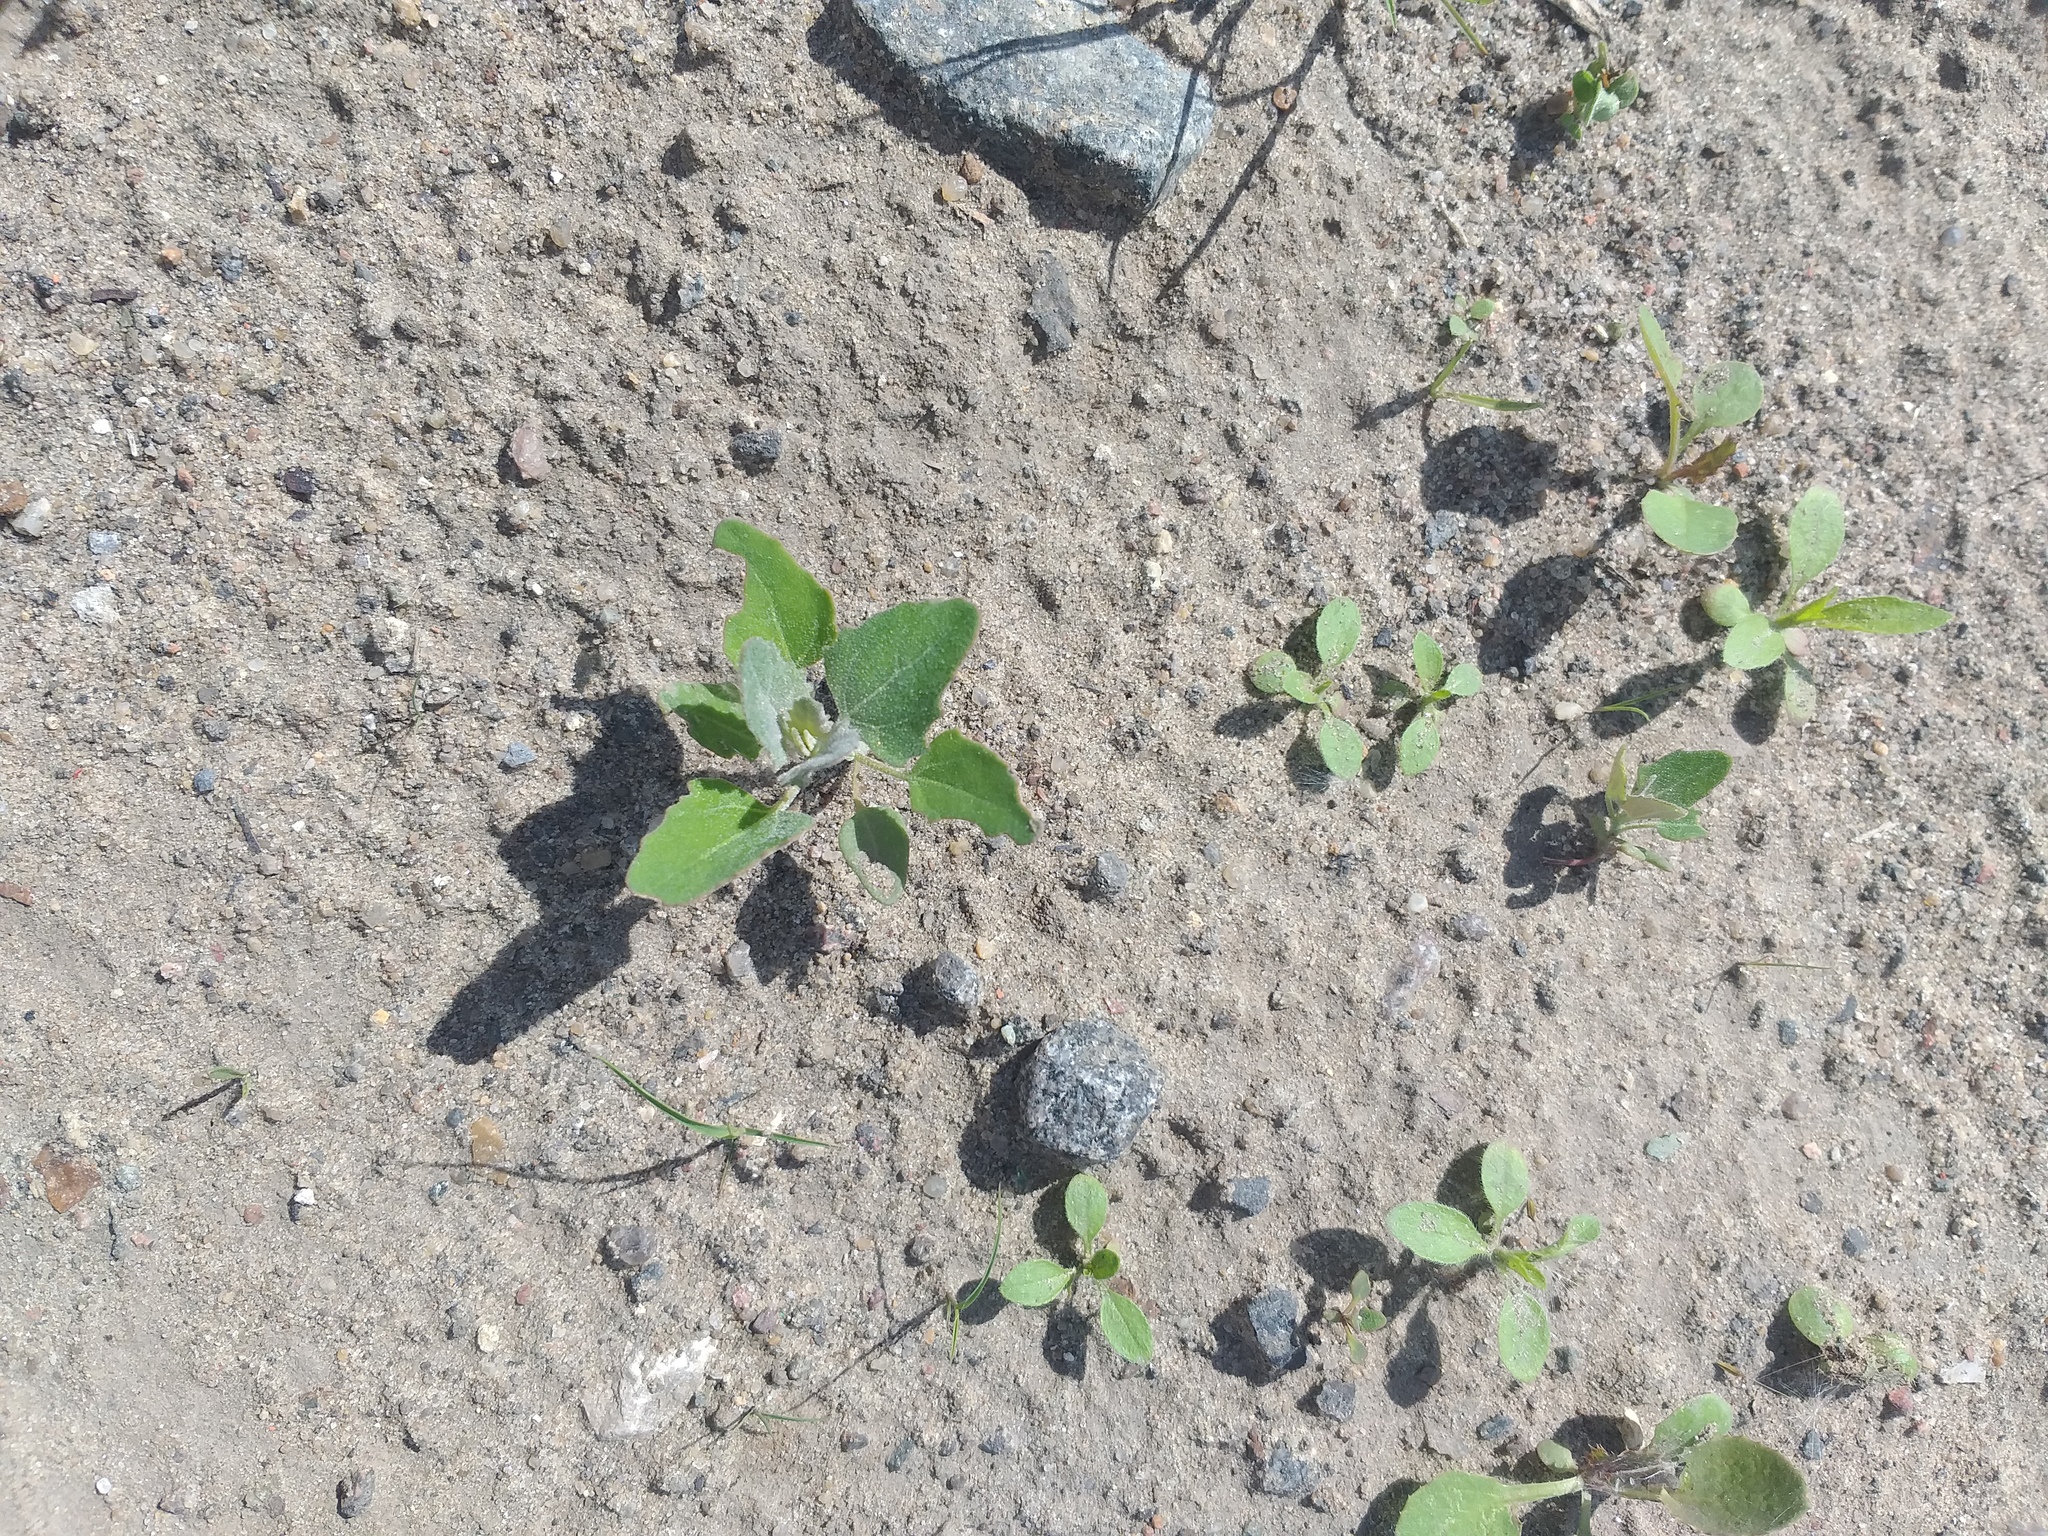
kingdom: Plantae
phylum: Tracheophyta
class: Magnoliopsida
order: Caryophyllales
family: Amaranthaceae
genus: Chenopodium
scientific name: Chenopodium album
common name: Fat-hen
